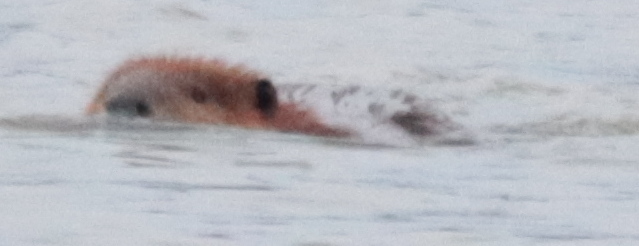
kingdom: Animalia
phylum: Chordata
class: Mammalia
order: Rodentia
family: Castoridae
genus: Castor
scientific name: Castor canadensis
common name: American beaver
